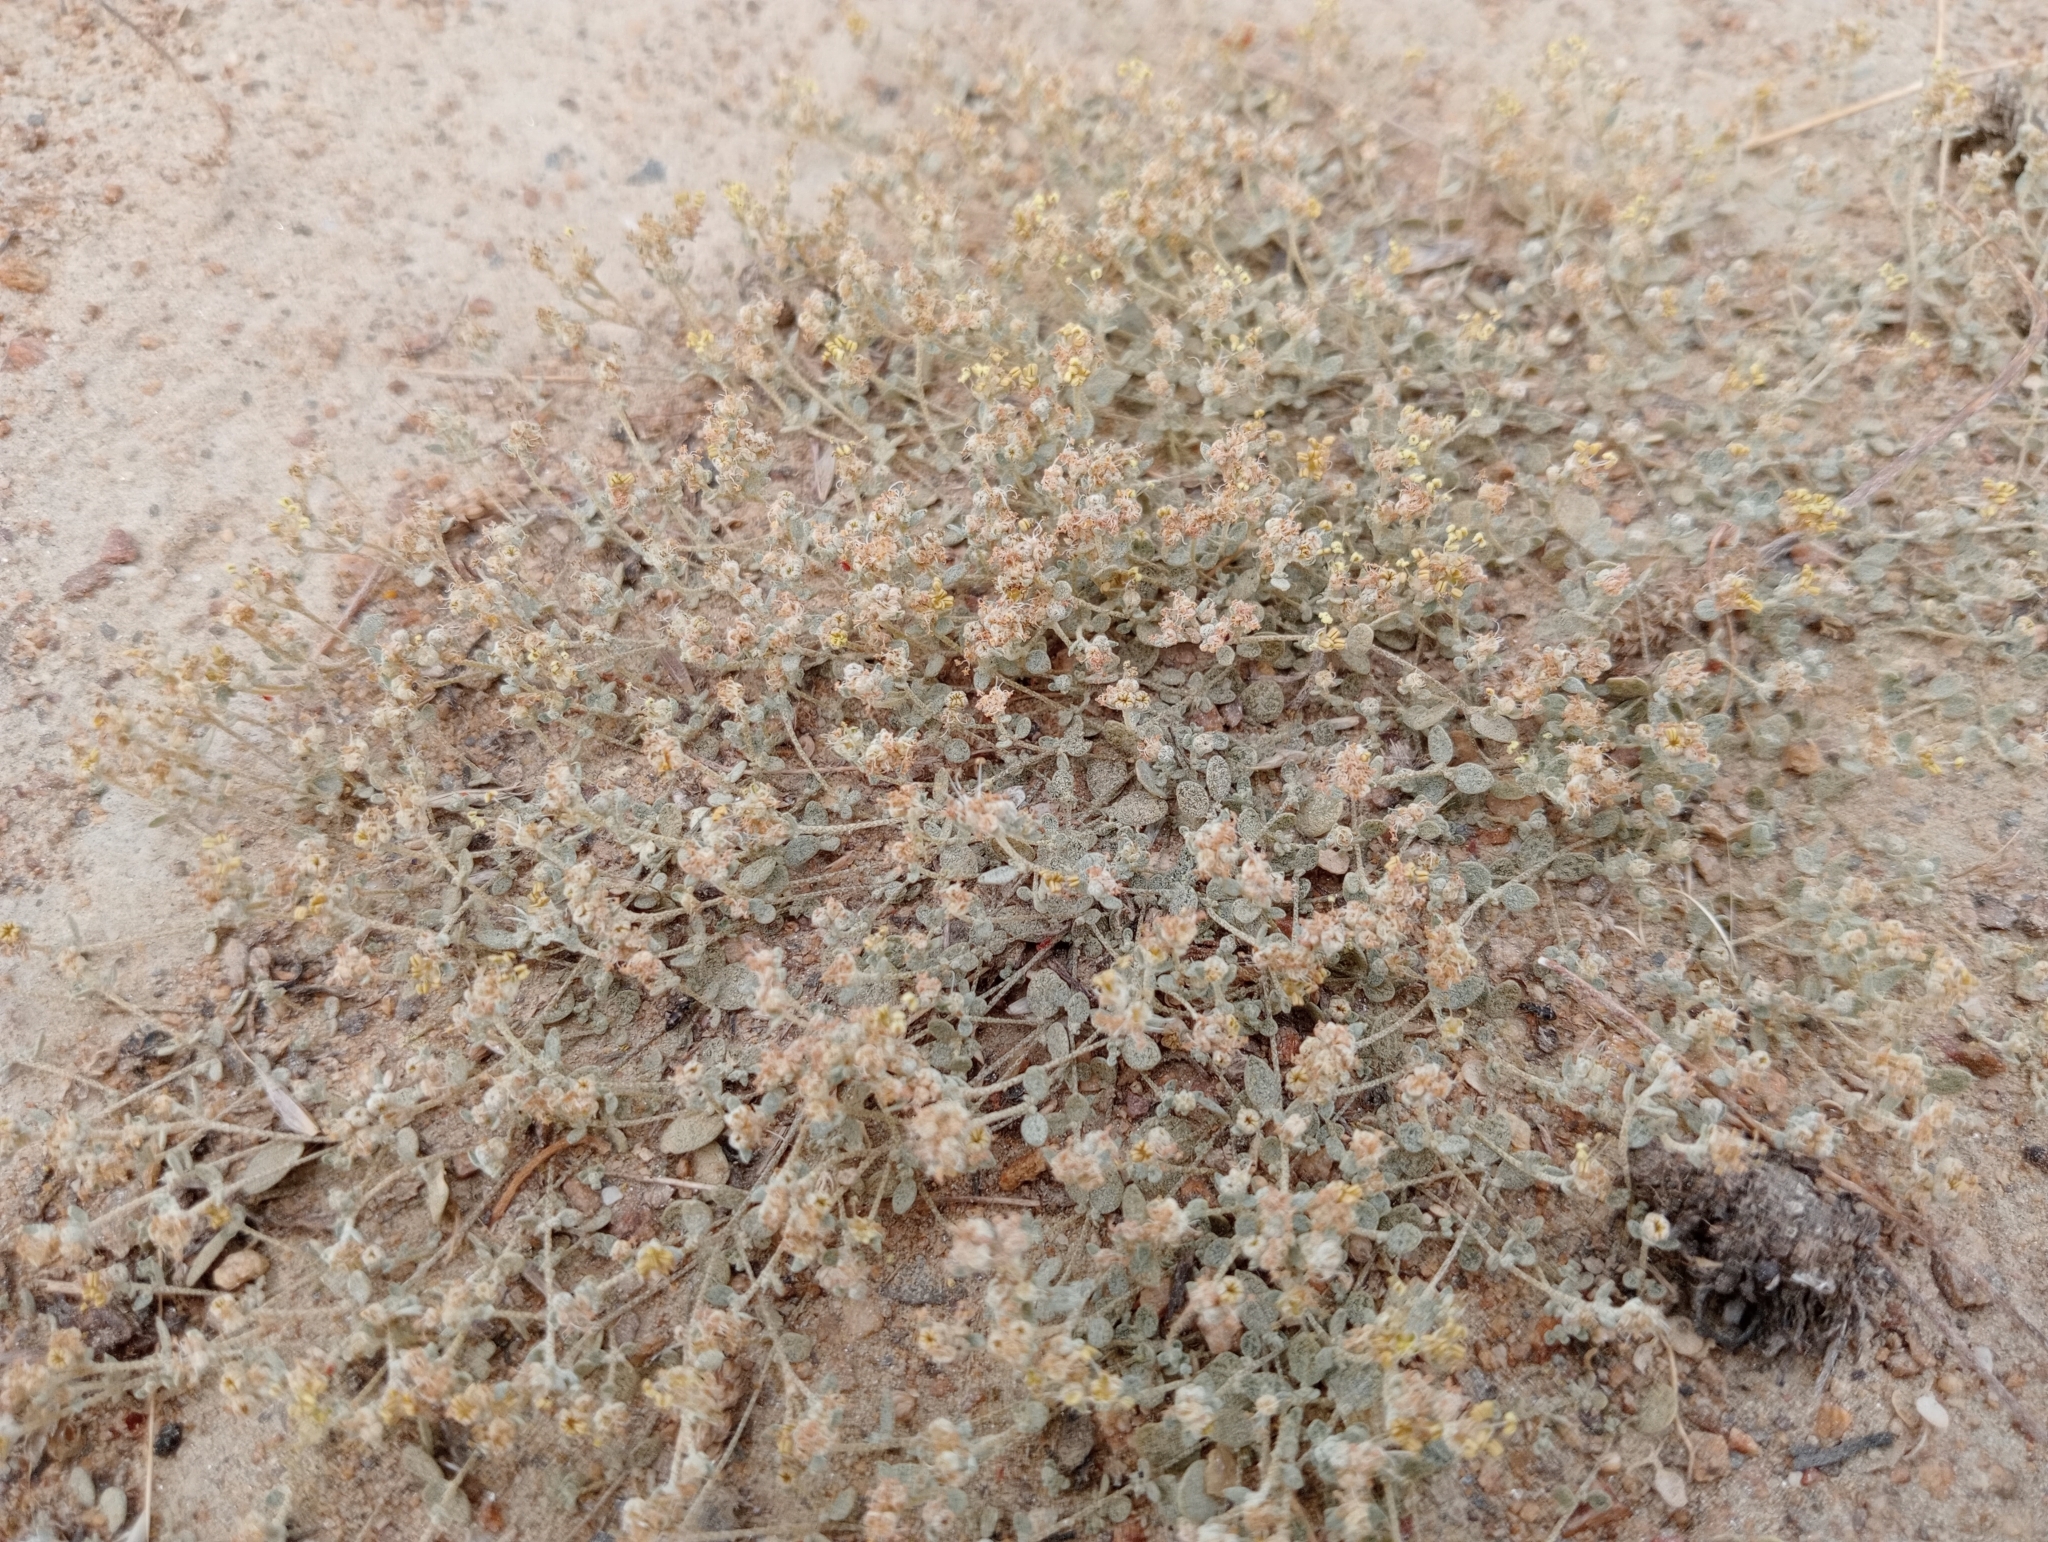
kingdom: Plantae
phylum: Tracheophyta
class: Magnoliopsida
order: Caryophyllales
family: Amaranthaceae
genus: Atriplex
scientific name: Atriplex buchananii
